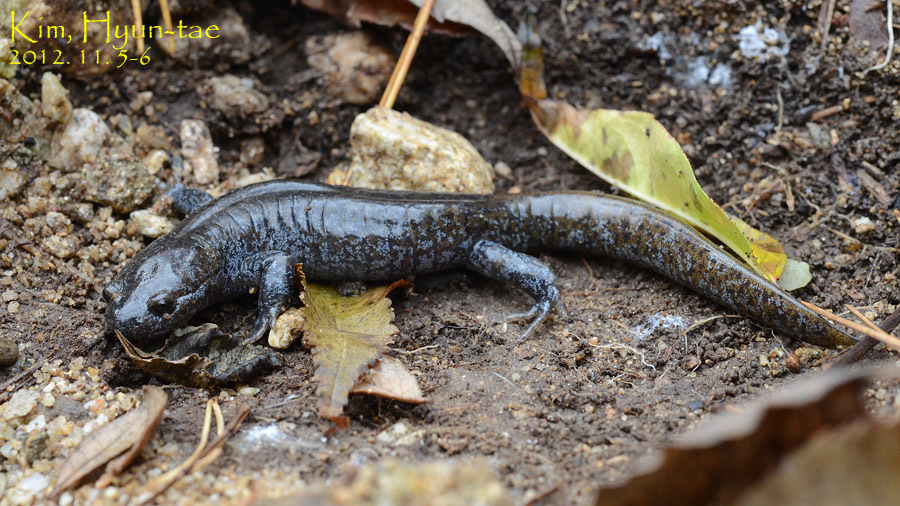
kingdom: Animalia
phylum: Chordata
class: Amphibia
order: Caudata
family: Hynobiidae
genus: Hynobius
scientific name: Hynobius leechii
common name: Gensan salamander
